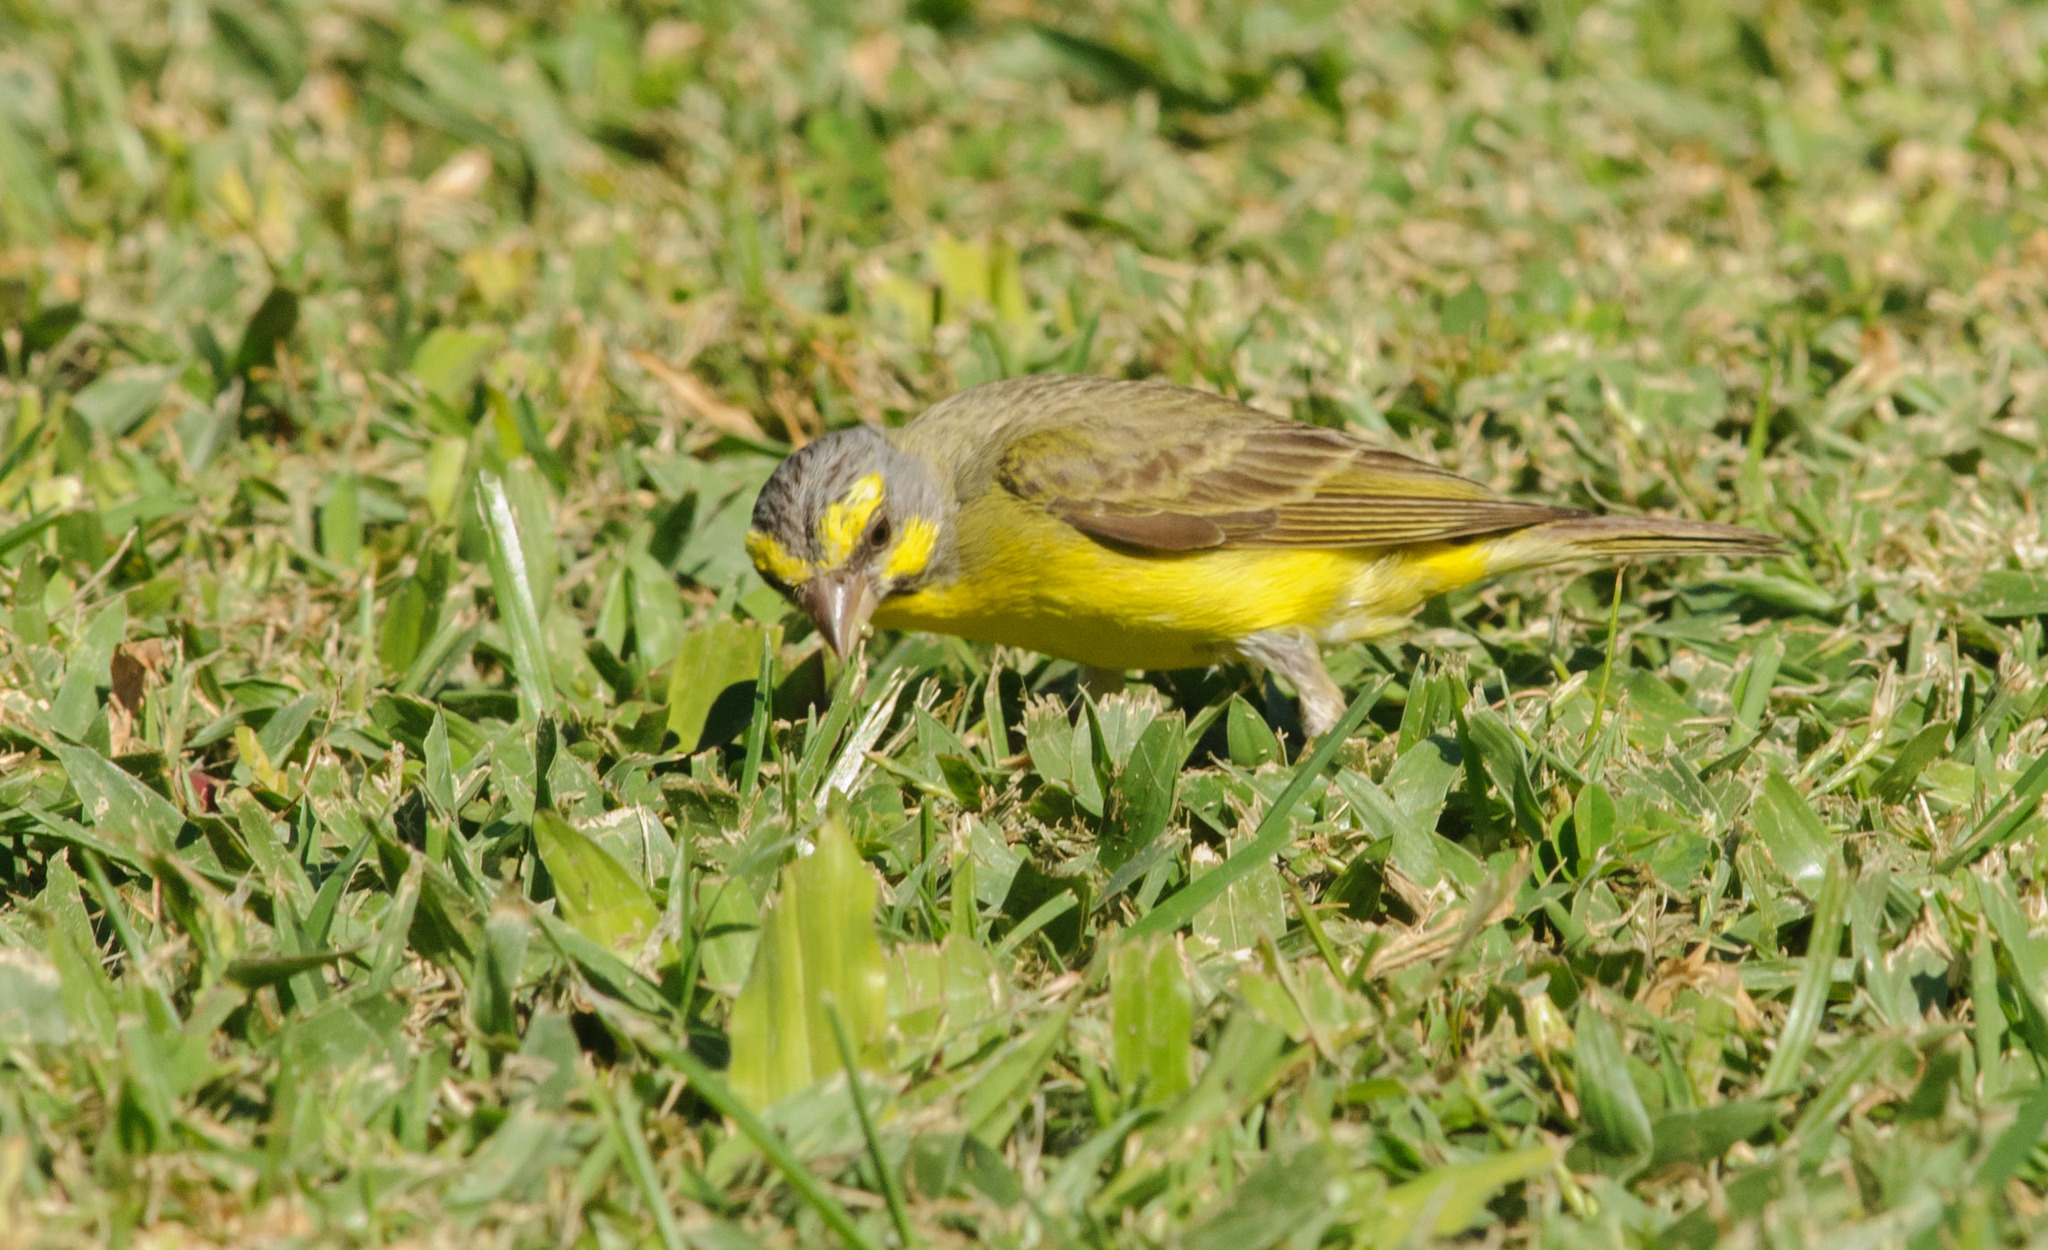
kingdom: Animalia
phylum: Chordata
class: Aves
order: Passeriformes
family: Fringillidae
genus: Crithagra
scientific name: Crithagra mozambica
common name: Yellow-fronted canary
